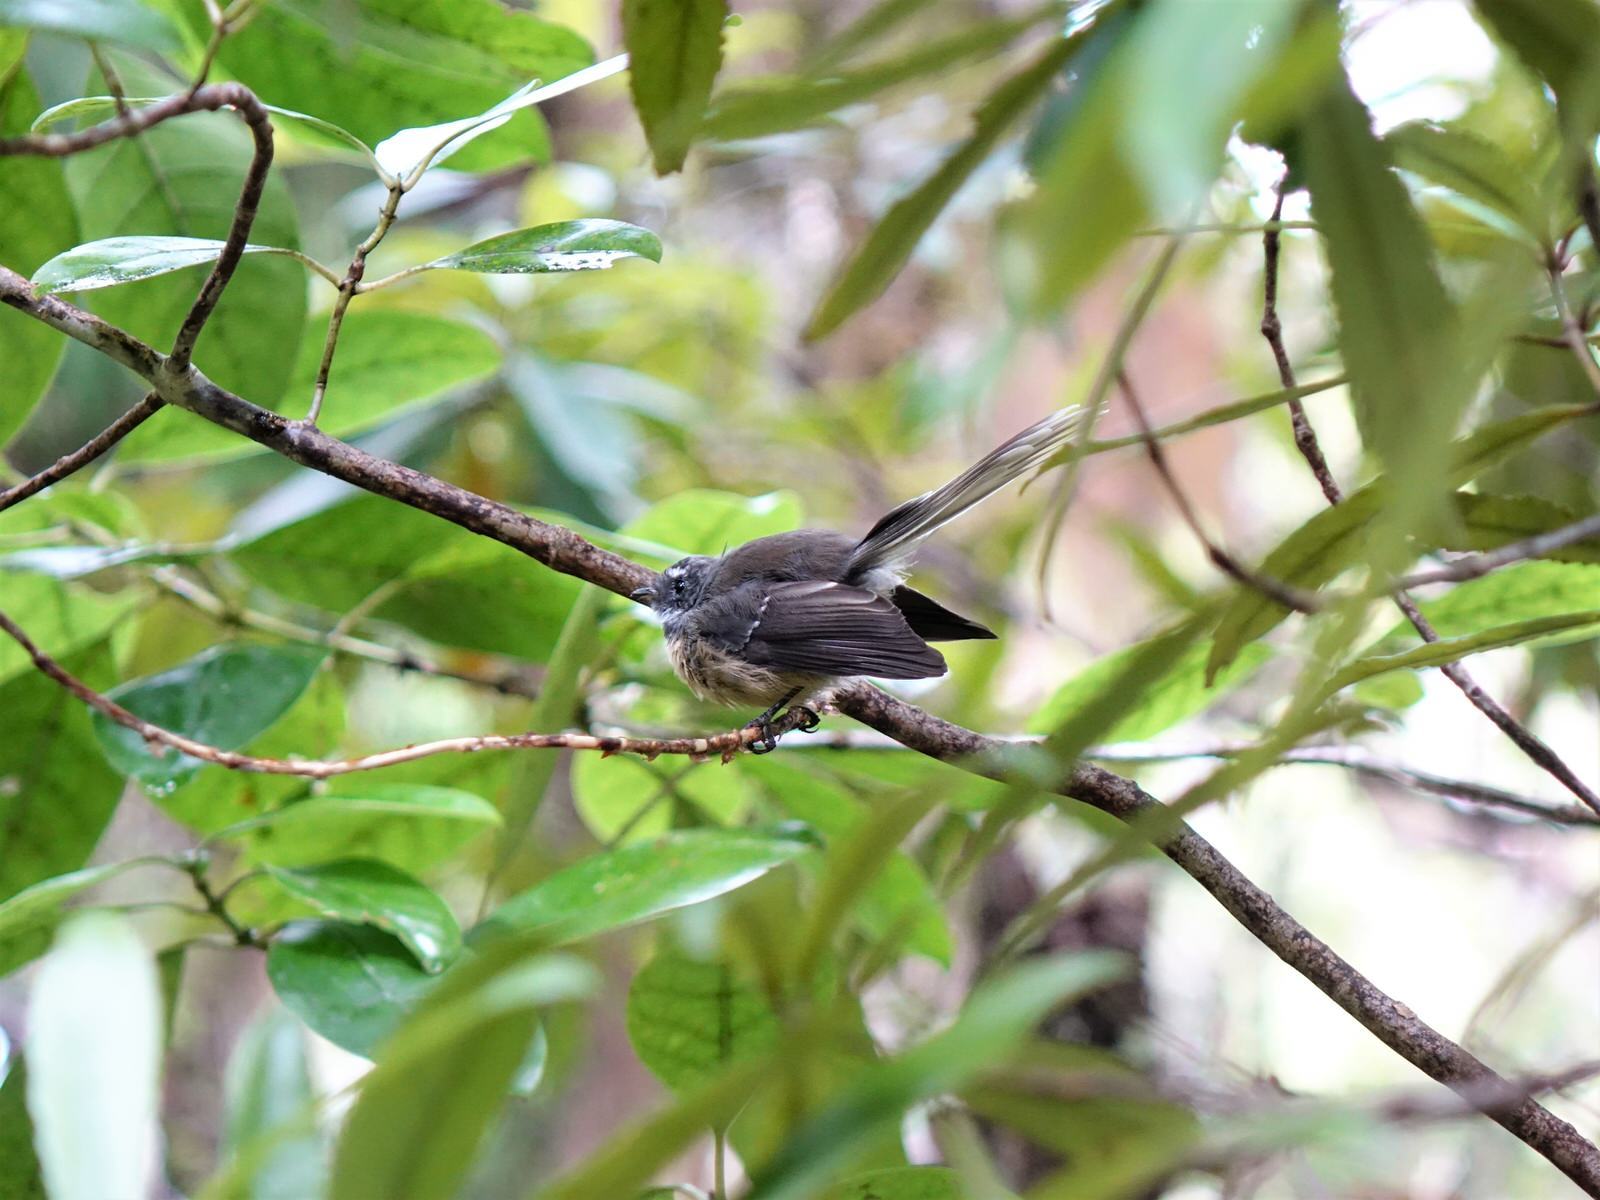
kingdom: Animalia
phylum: Chordata
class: Aves
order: Passeriformes
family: Rhipiduridae
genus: Rhipidura
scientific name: Rhipidura fuliginosa
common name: New zealand fantail
